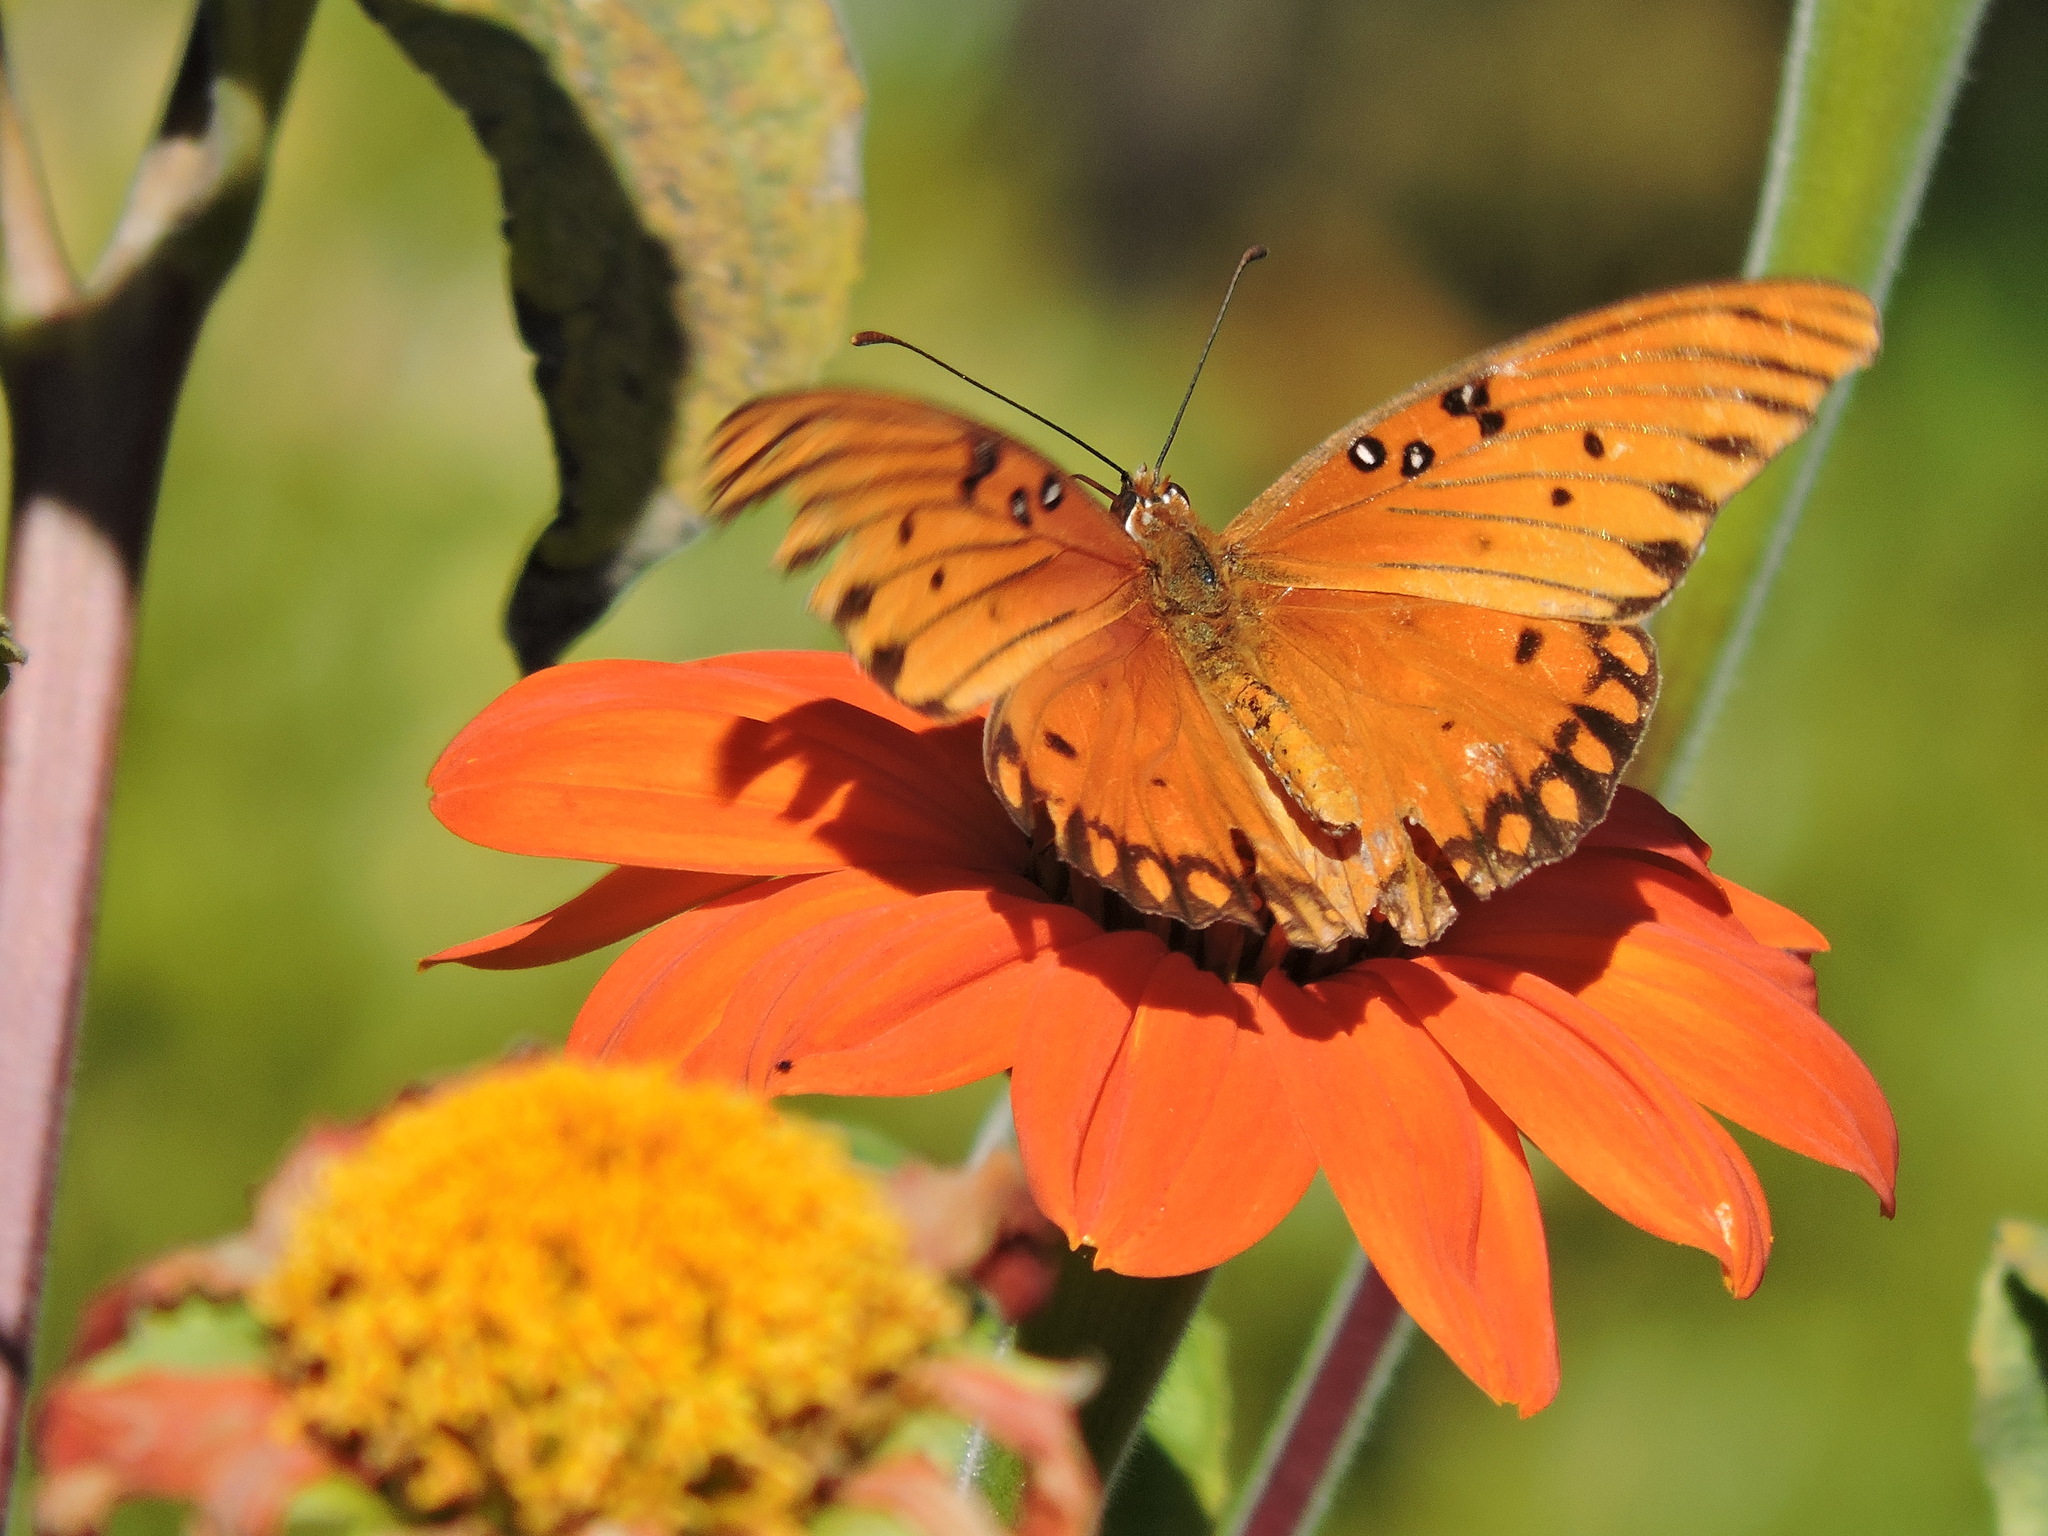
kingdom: Animalia
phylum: Arthropoda
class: Insecta
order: Lepidoptera
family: Nymphalidae
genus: Dione
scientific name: Dione vanillae
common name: Gulf fritillary
